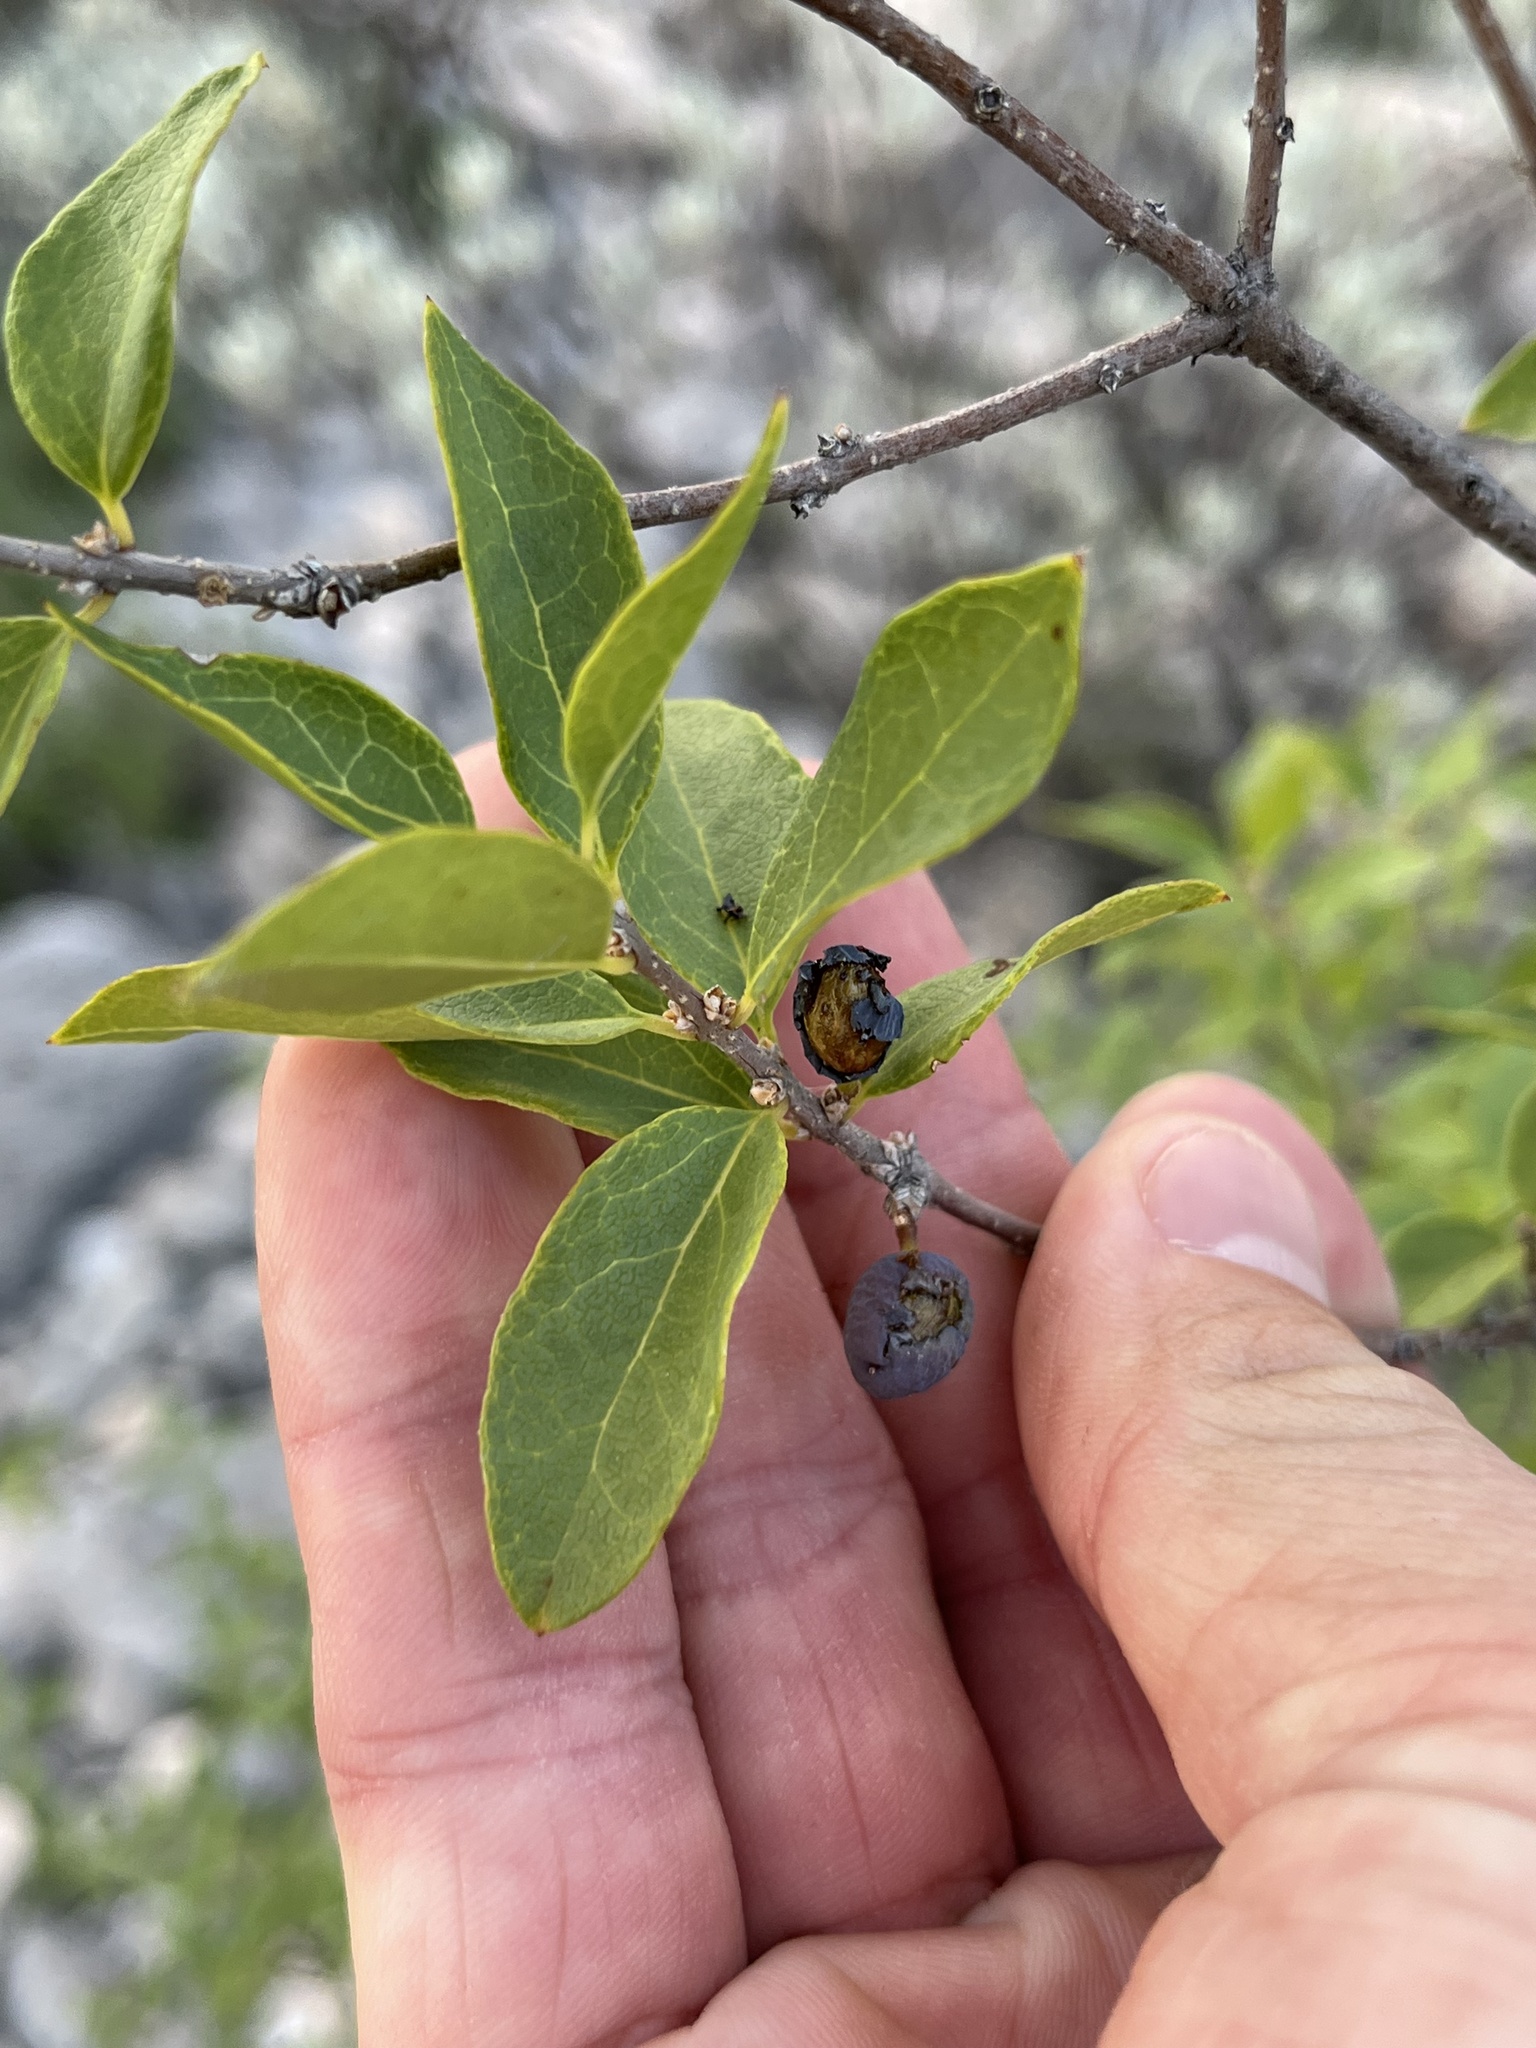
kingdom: Plantae
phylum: Tracheophyta
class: Magnoliopsida
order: Lamiales
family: Oleaceae
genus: Forestiera
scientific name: Forestiera reticulata
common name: Netleaf swamp-privet
